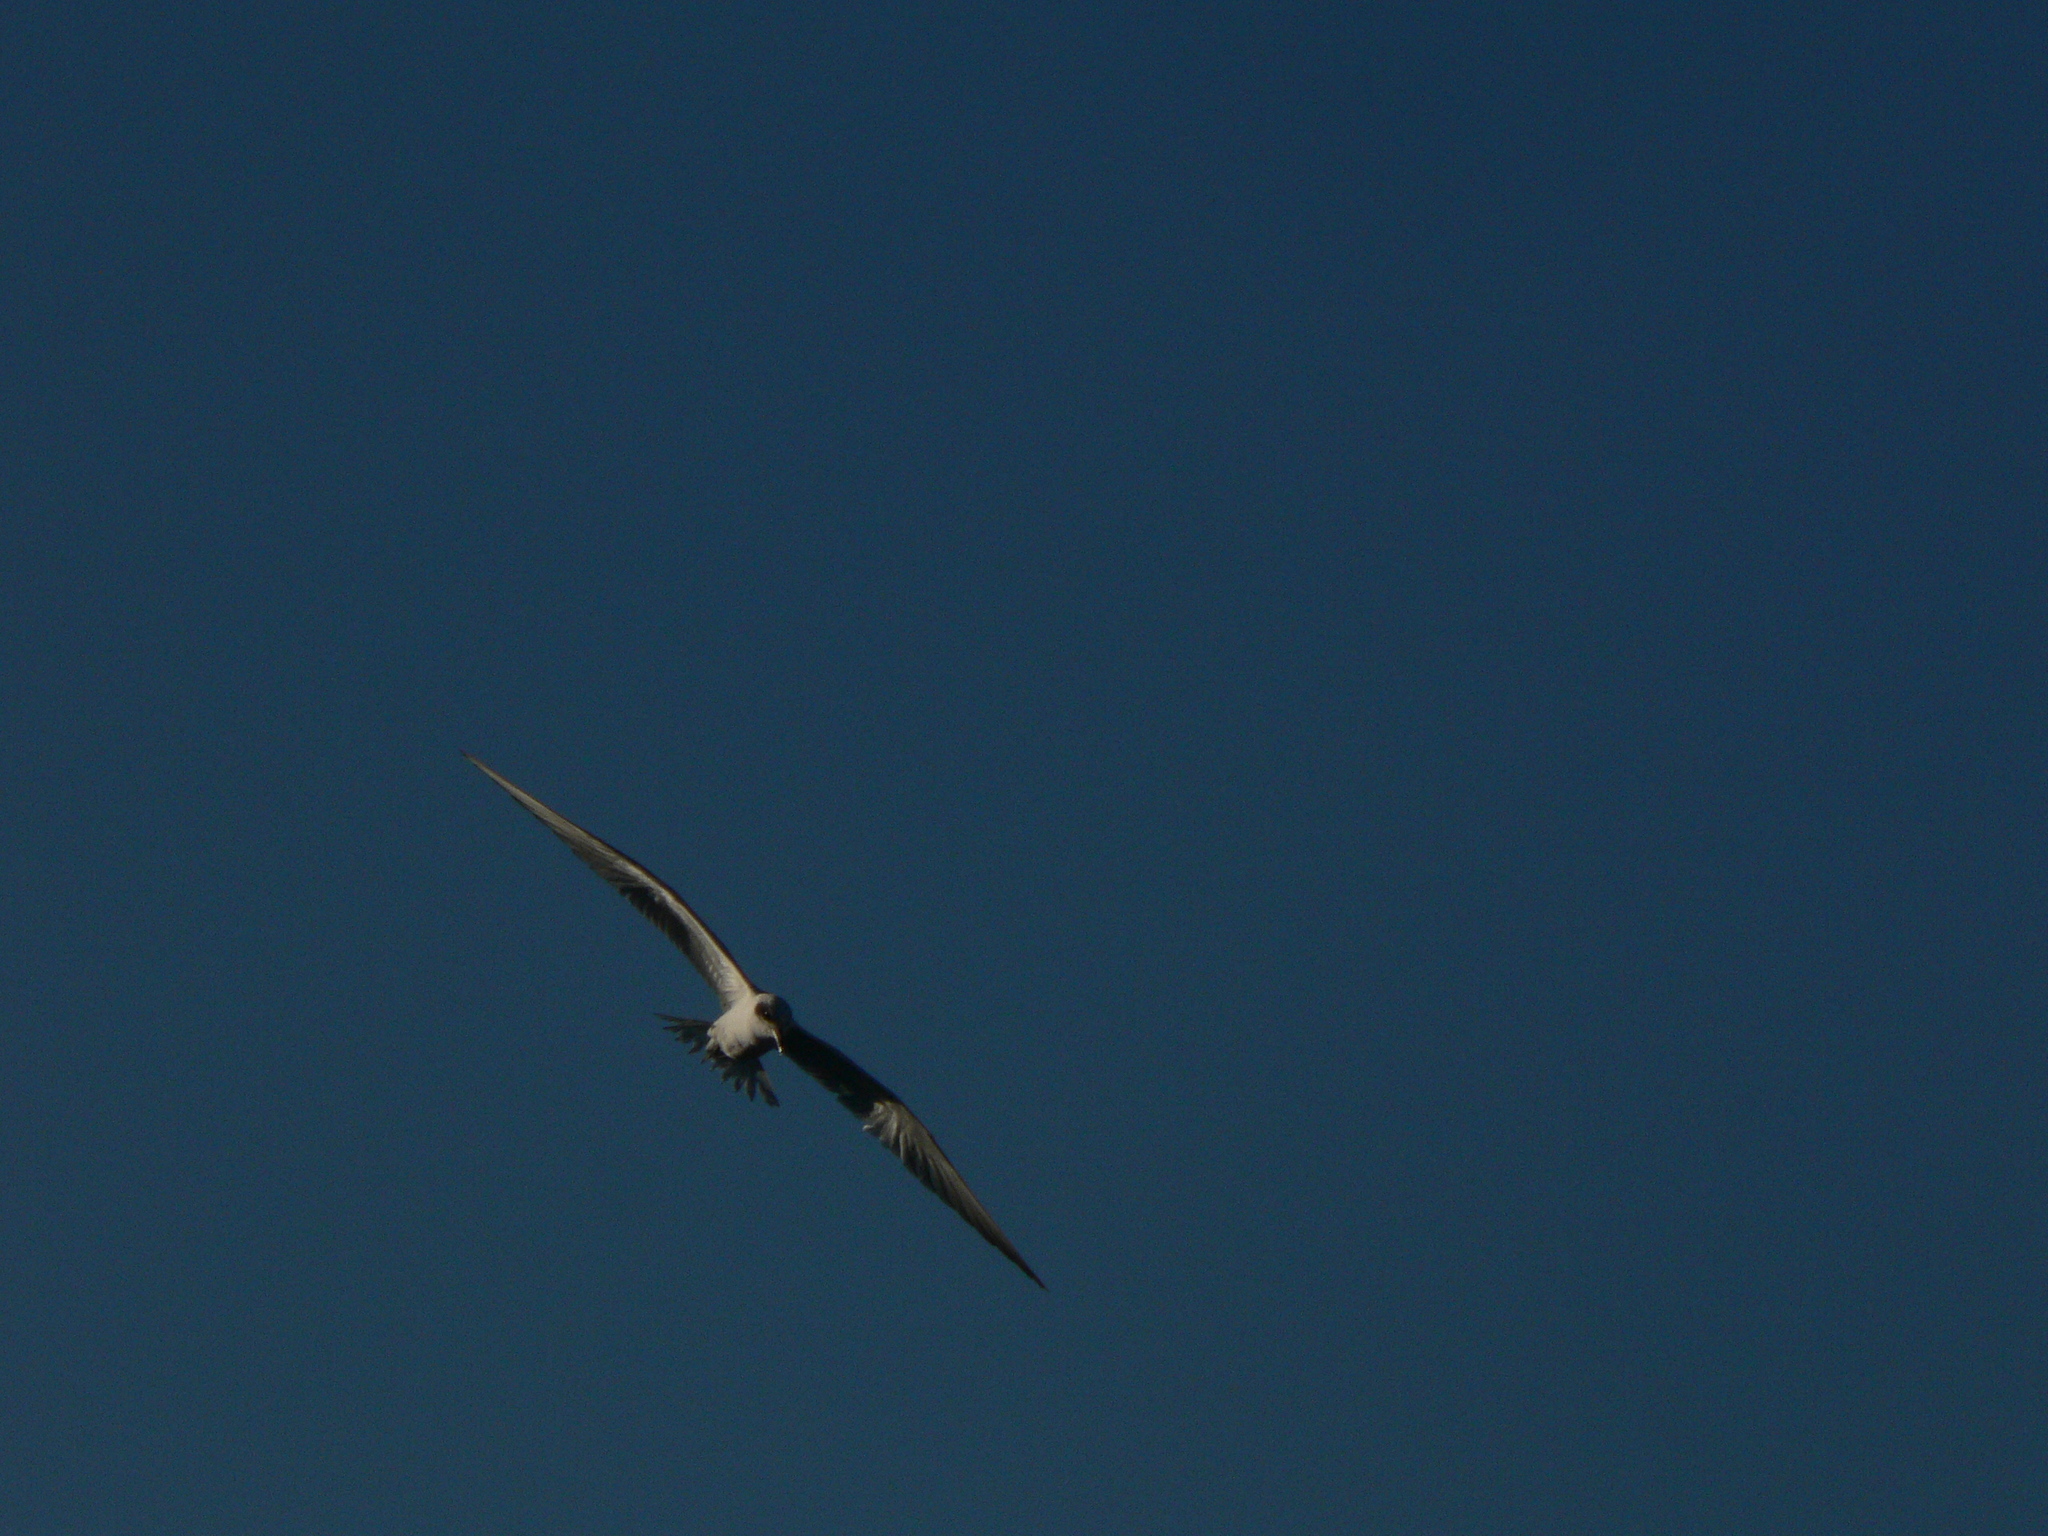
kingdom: Animalia
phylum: Chordata
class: Aves
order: Charadriiformes
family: Laridae
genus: Gelochelidon
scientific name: Gelochelidon macrotarsa
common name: Australian tern
